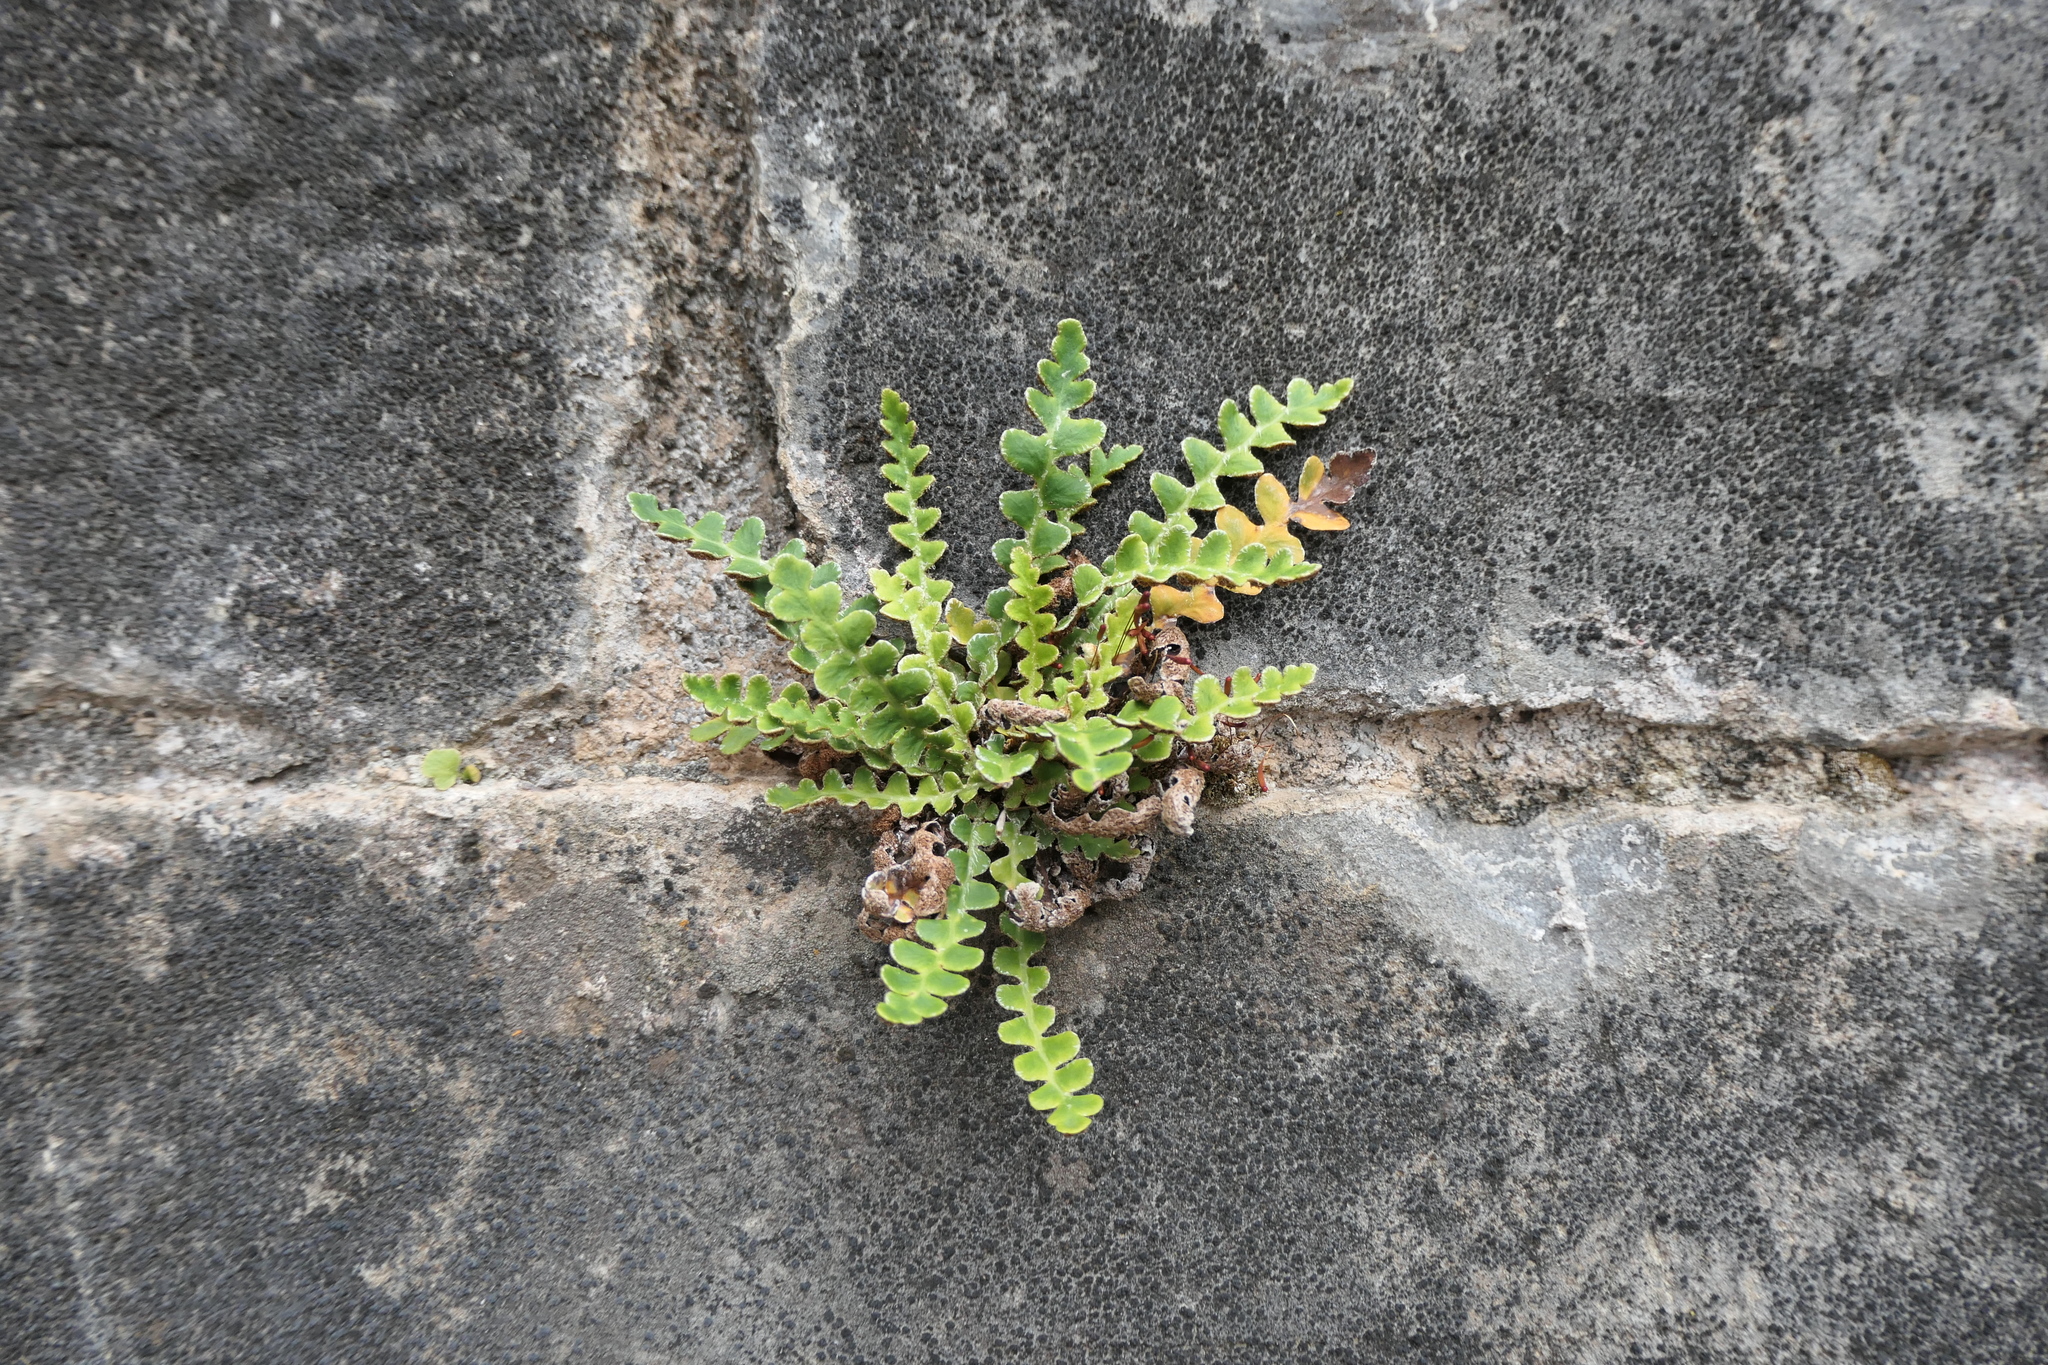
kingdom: Plantae
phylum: Tracheophyta
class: Polypodiopsida
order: Polypodiales
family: Aspleniaceae
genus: Asplenium
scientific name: Asplenium ceterach
